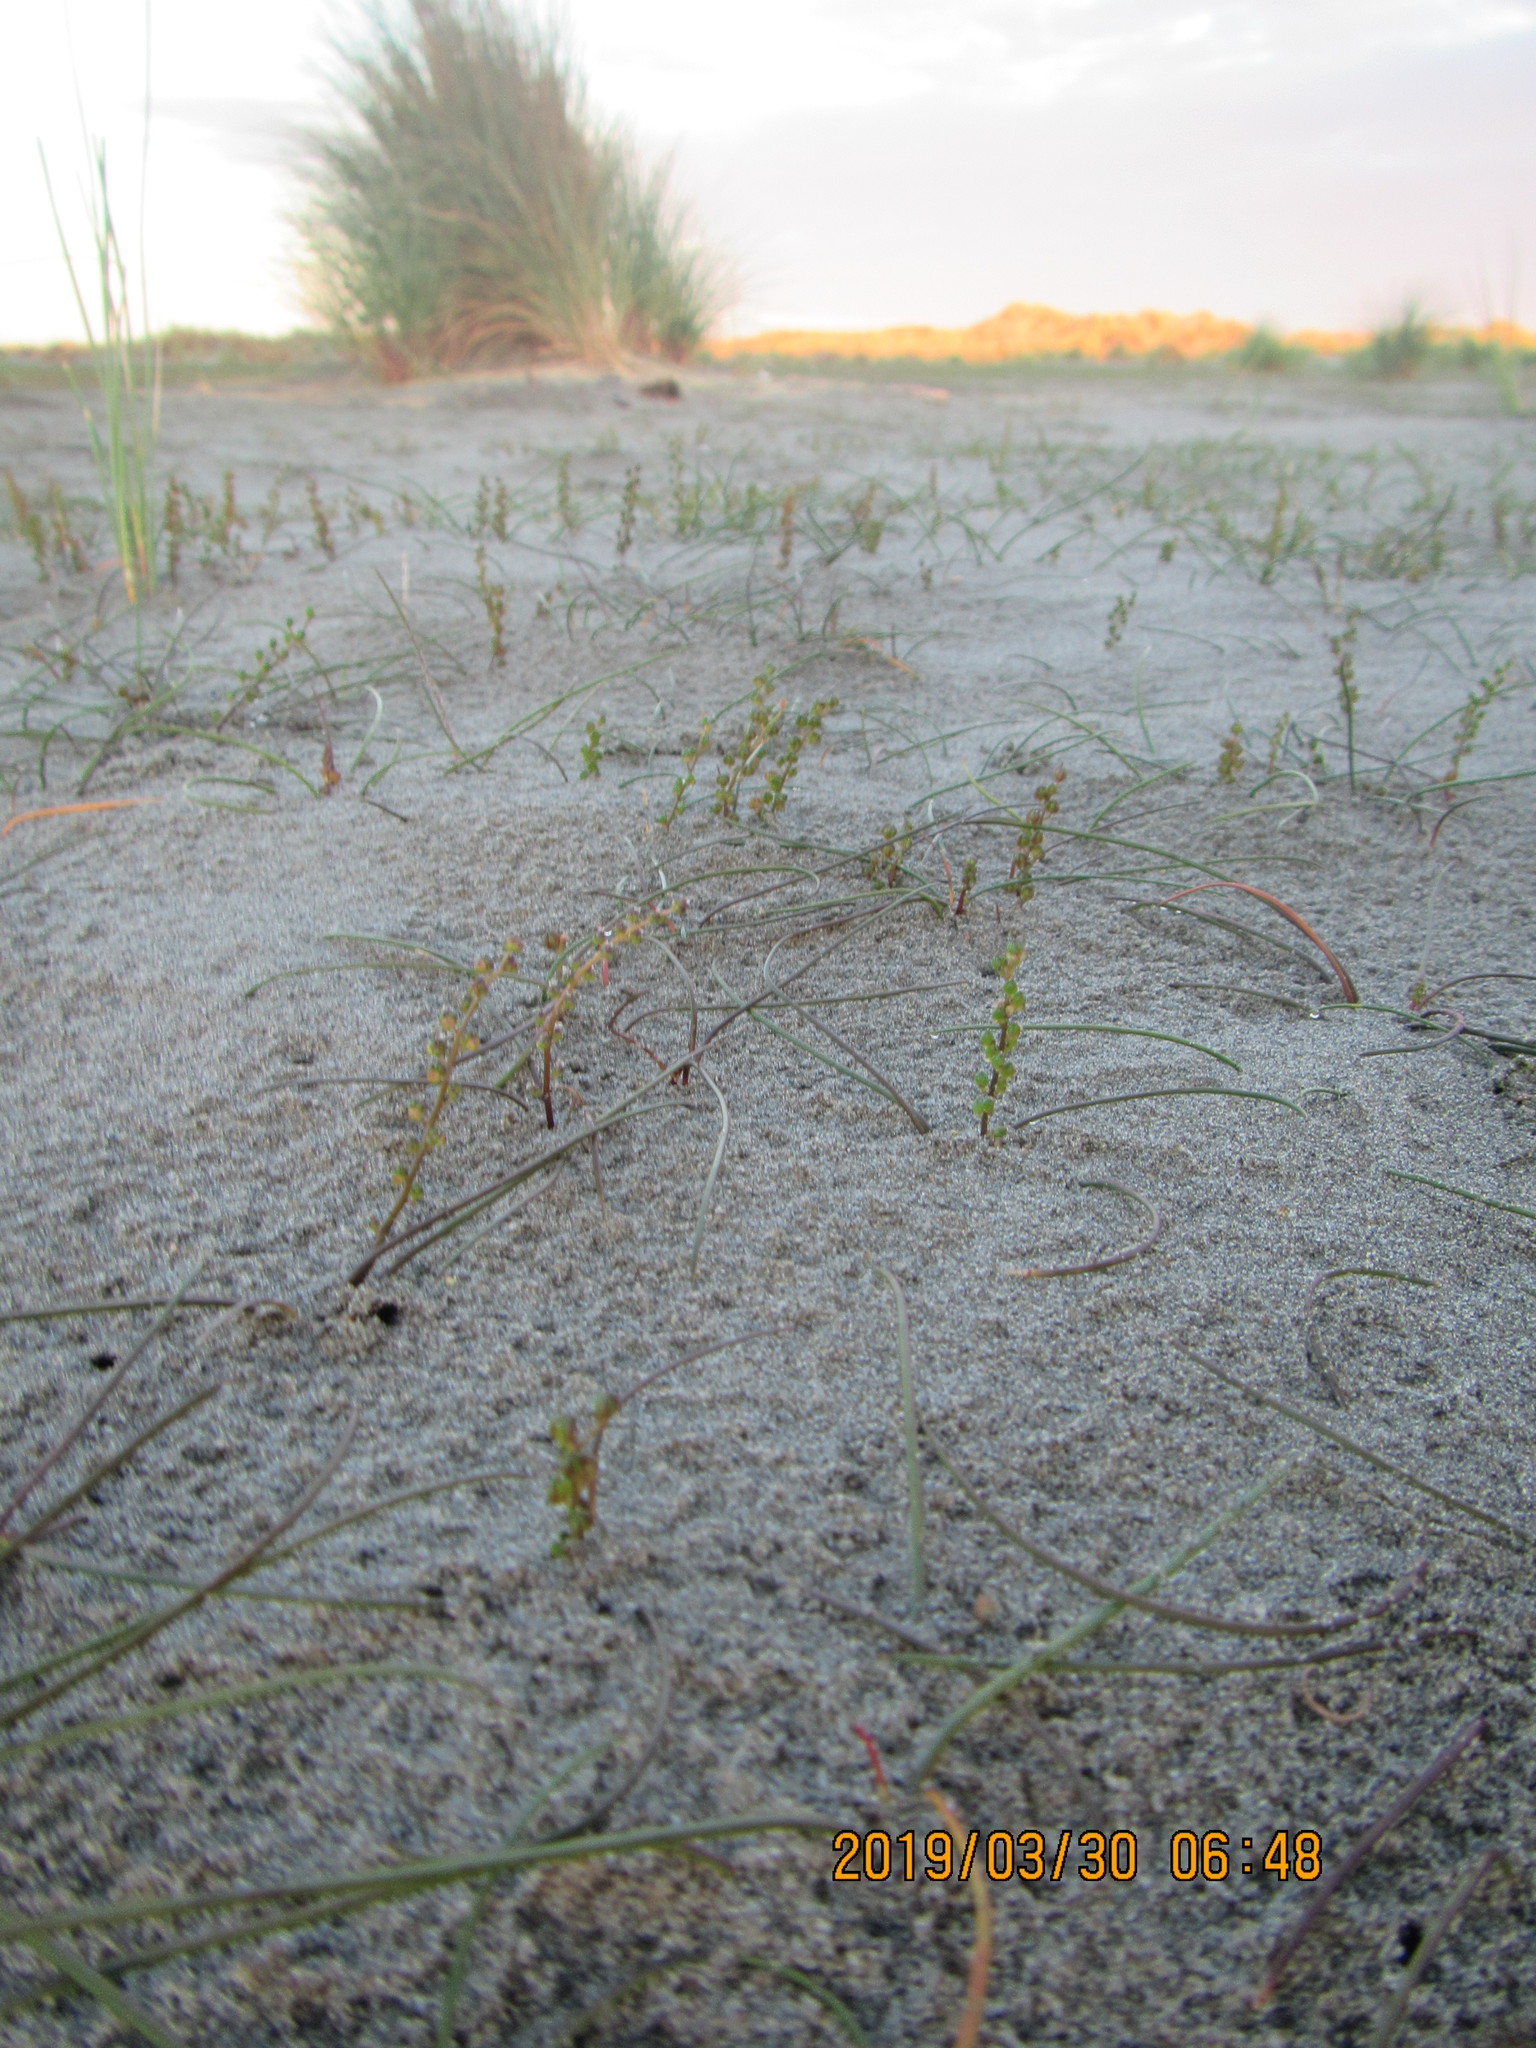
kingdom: Plantae
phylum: Tracheophyta
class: Liliopsida
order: Alismatales
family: Juncaginaceae
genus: Triglochin
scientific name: Triglochin striata
